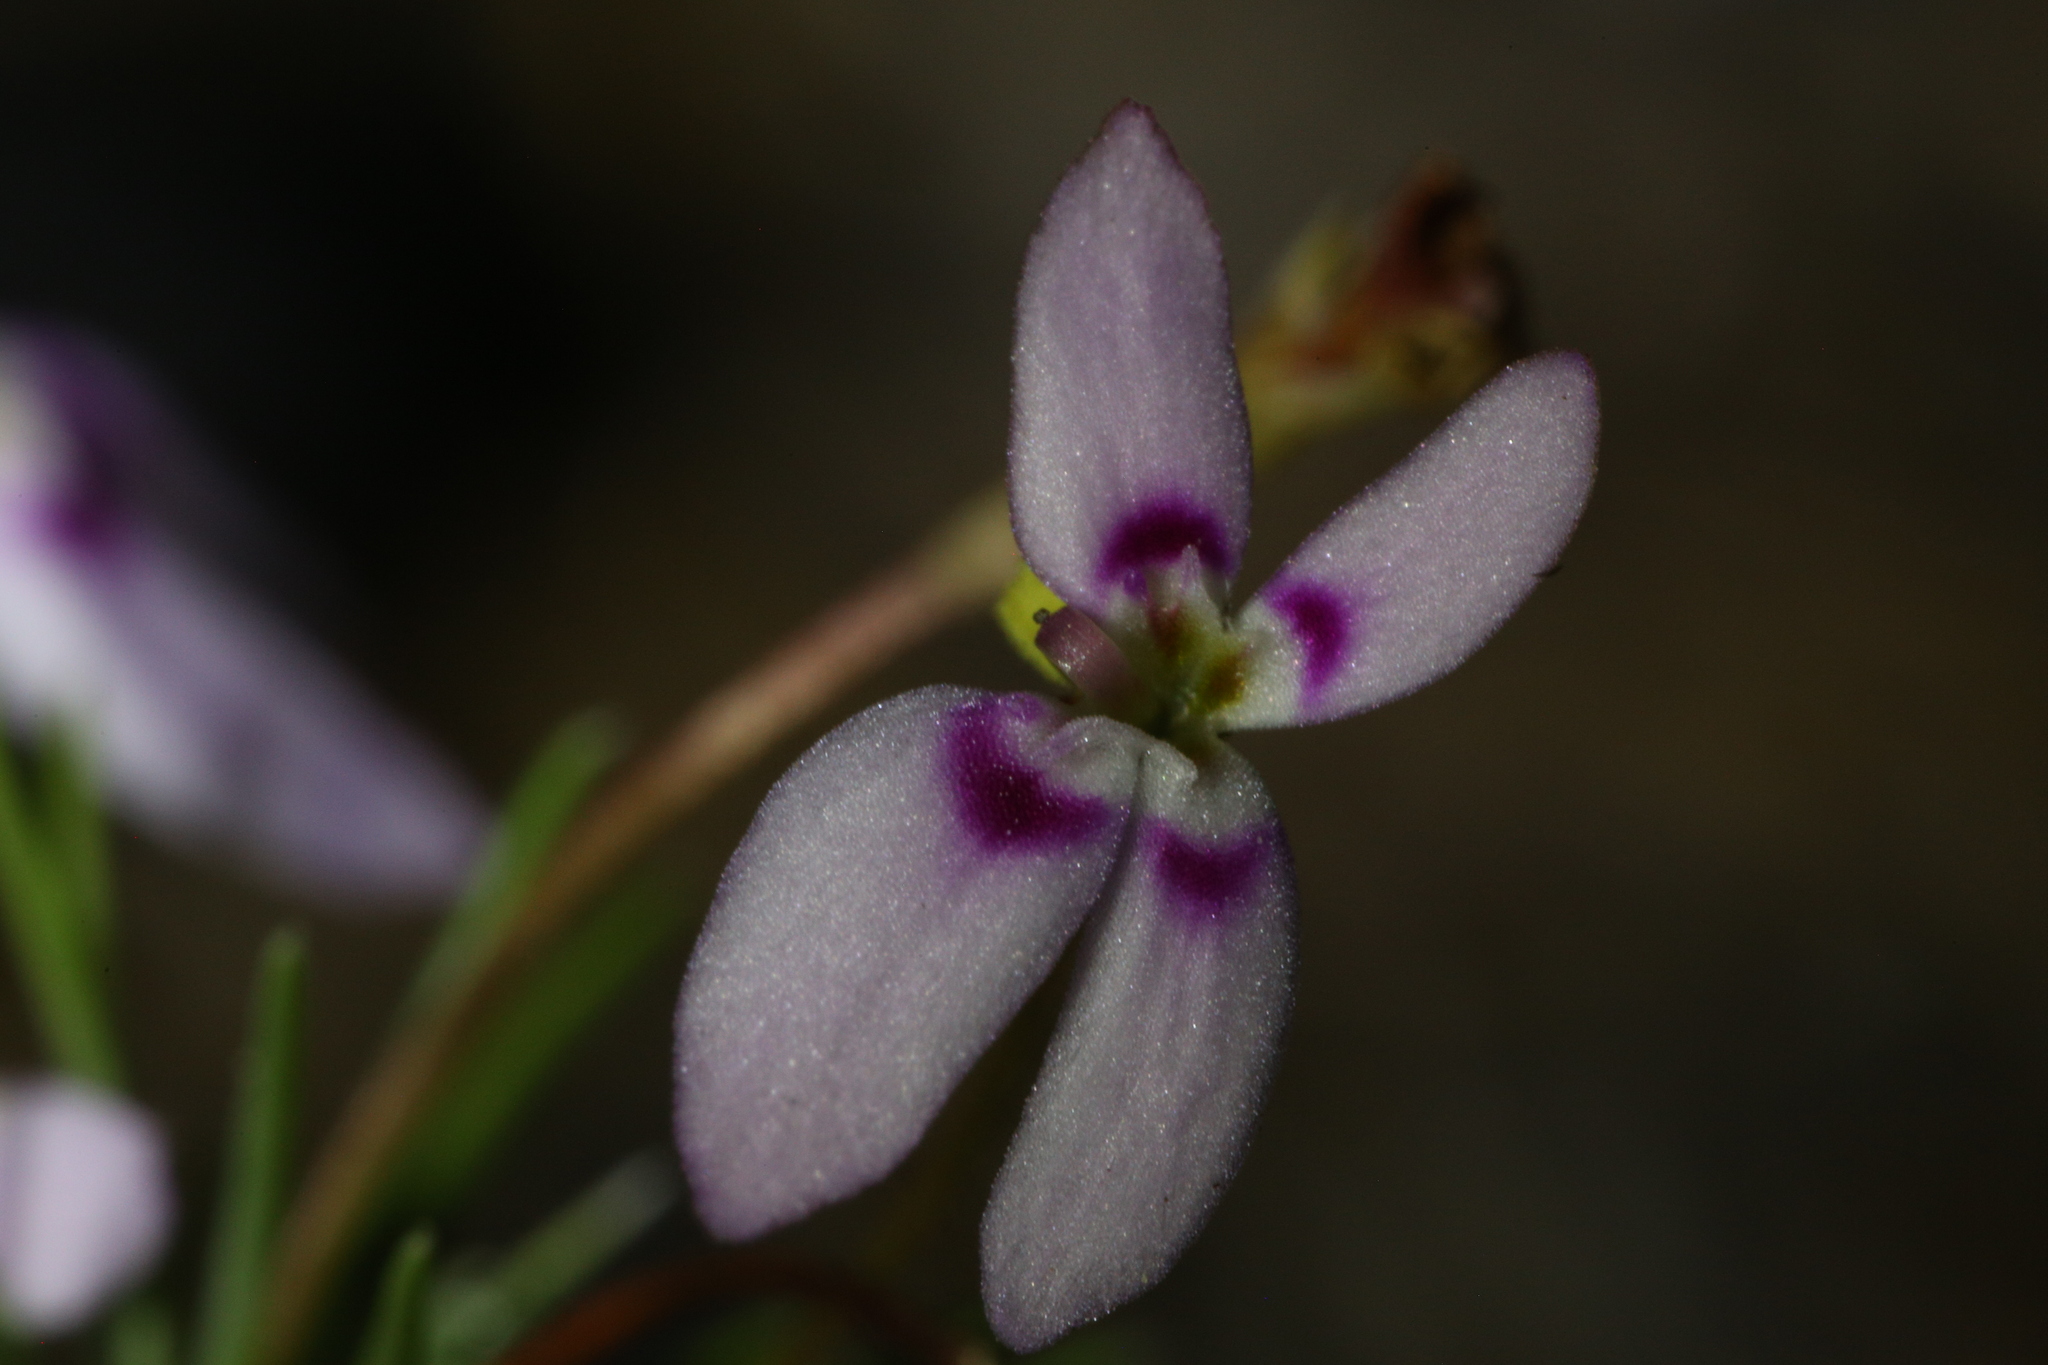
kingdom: Plantae
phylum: Tracheophyta
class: Magnoliopsida
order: Asterales
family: Stylidiaceae
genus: Stylidium
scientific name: Stylidium repens
